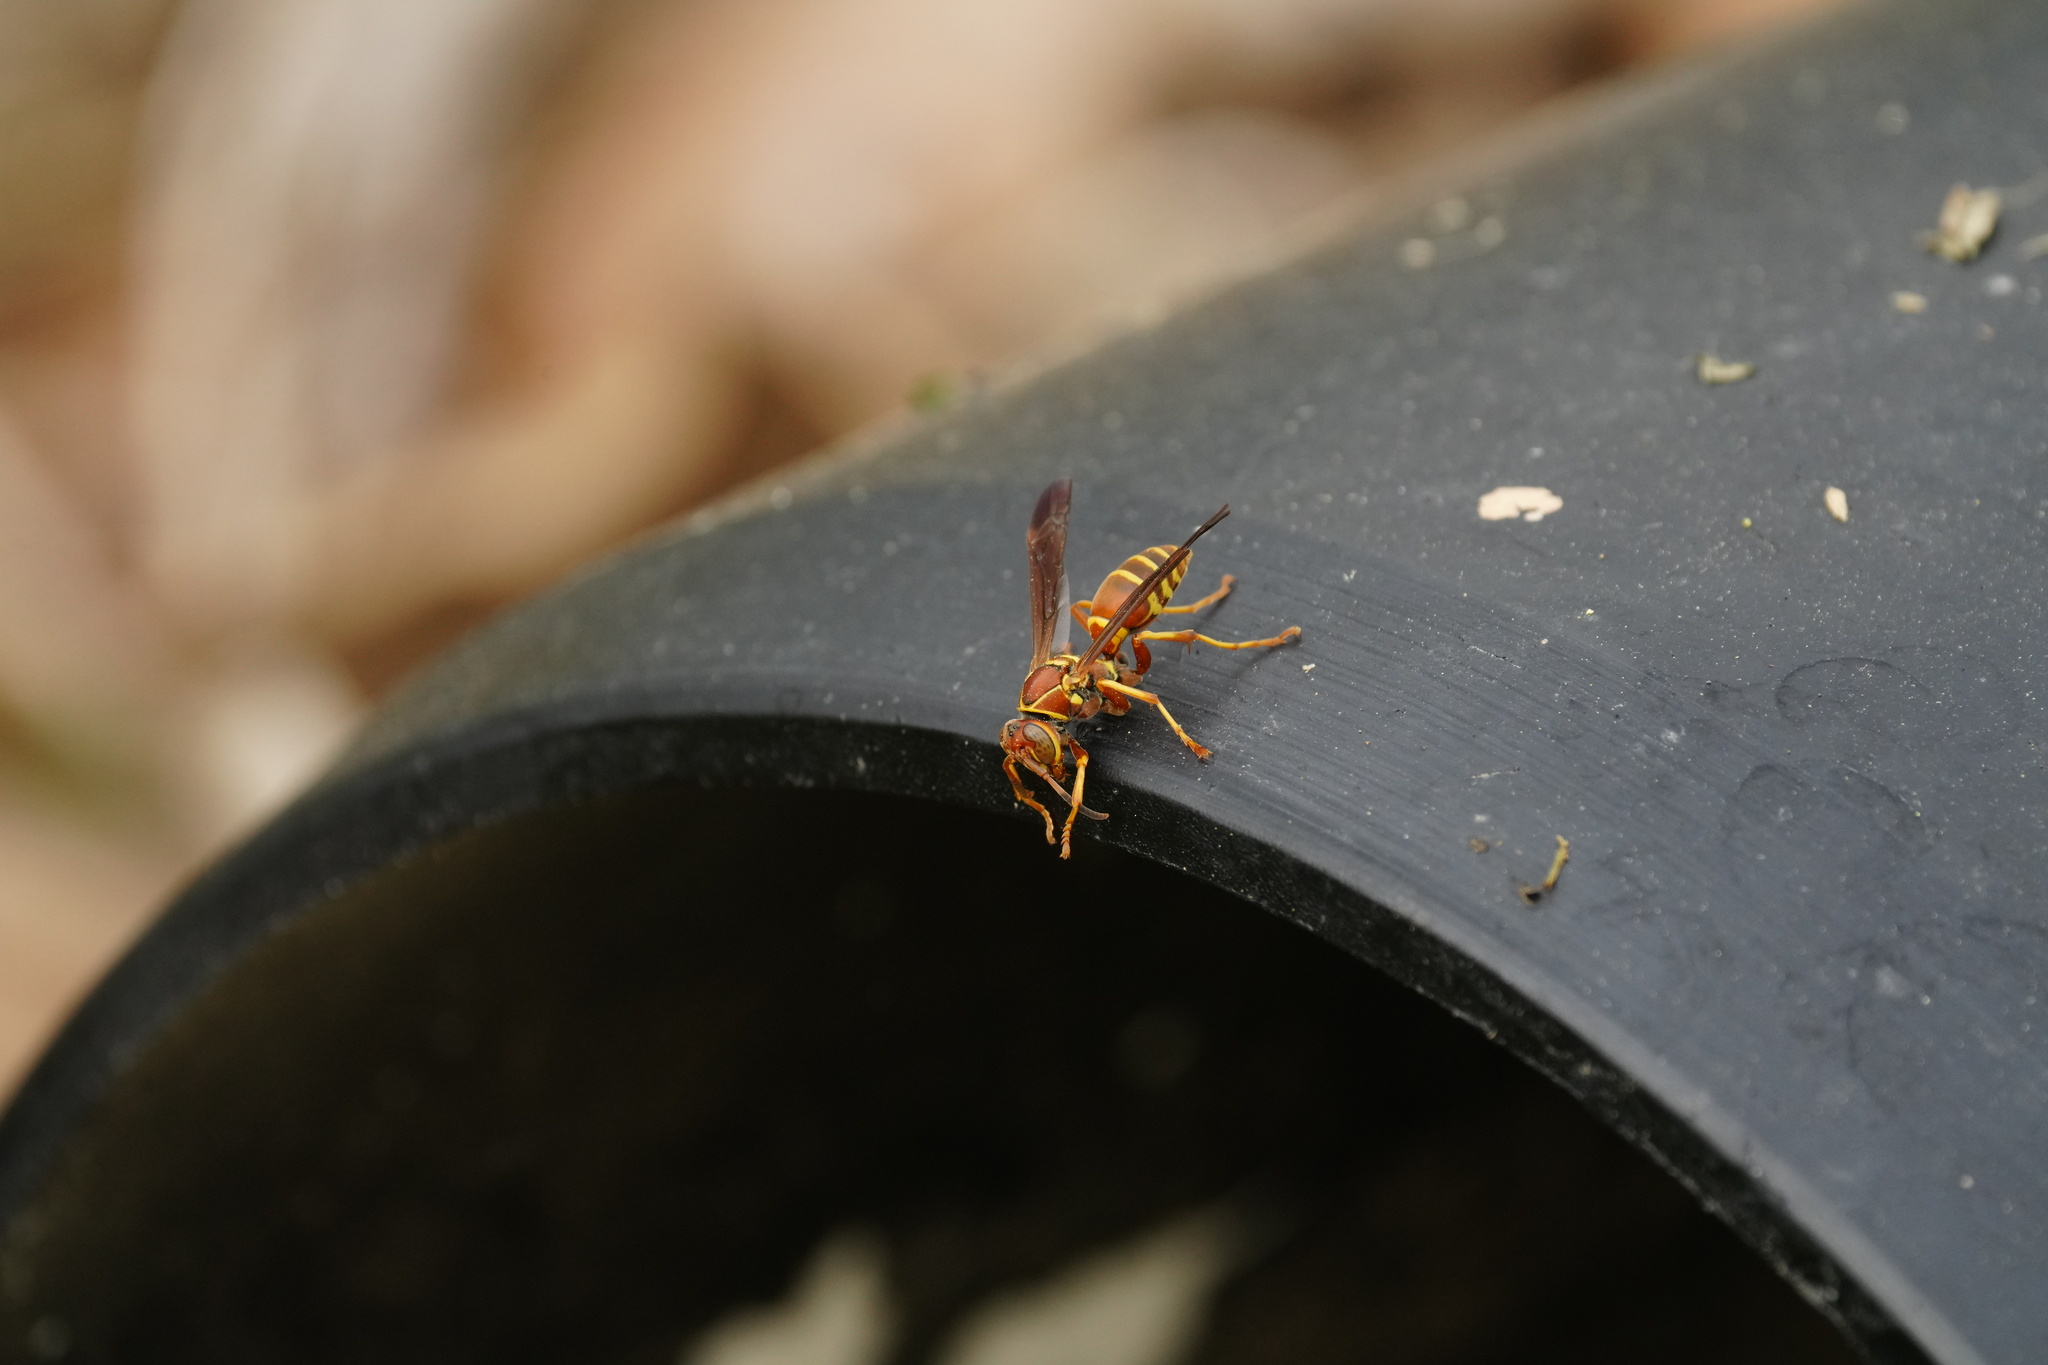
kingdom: Animalia
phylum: Arthropoda
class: Insecta
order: Hymenoptera
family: Eumenidae
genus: Polistes
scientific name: Polistes dorsalis
